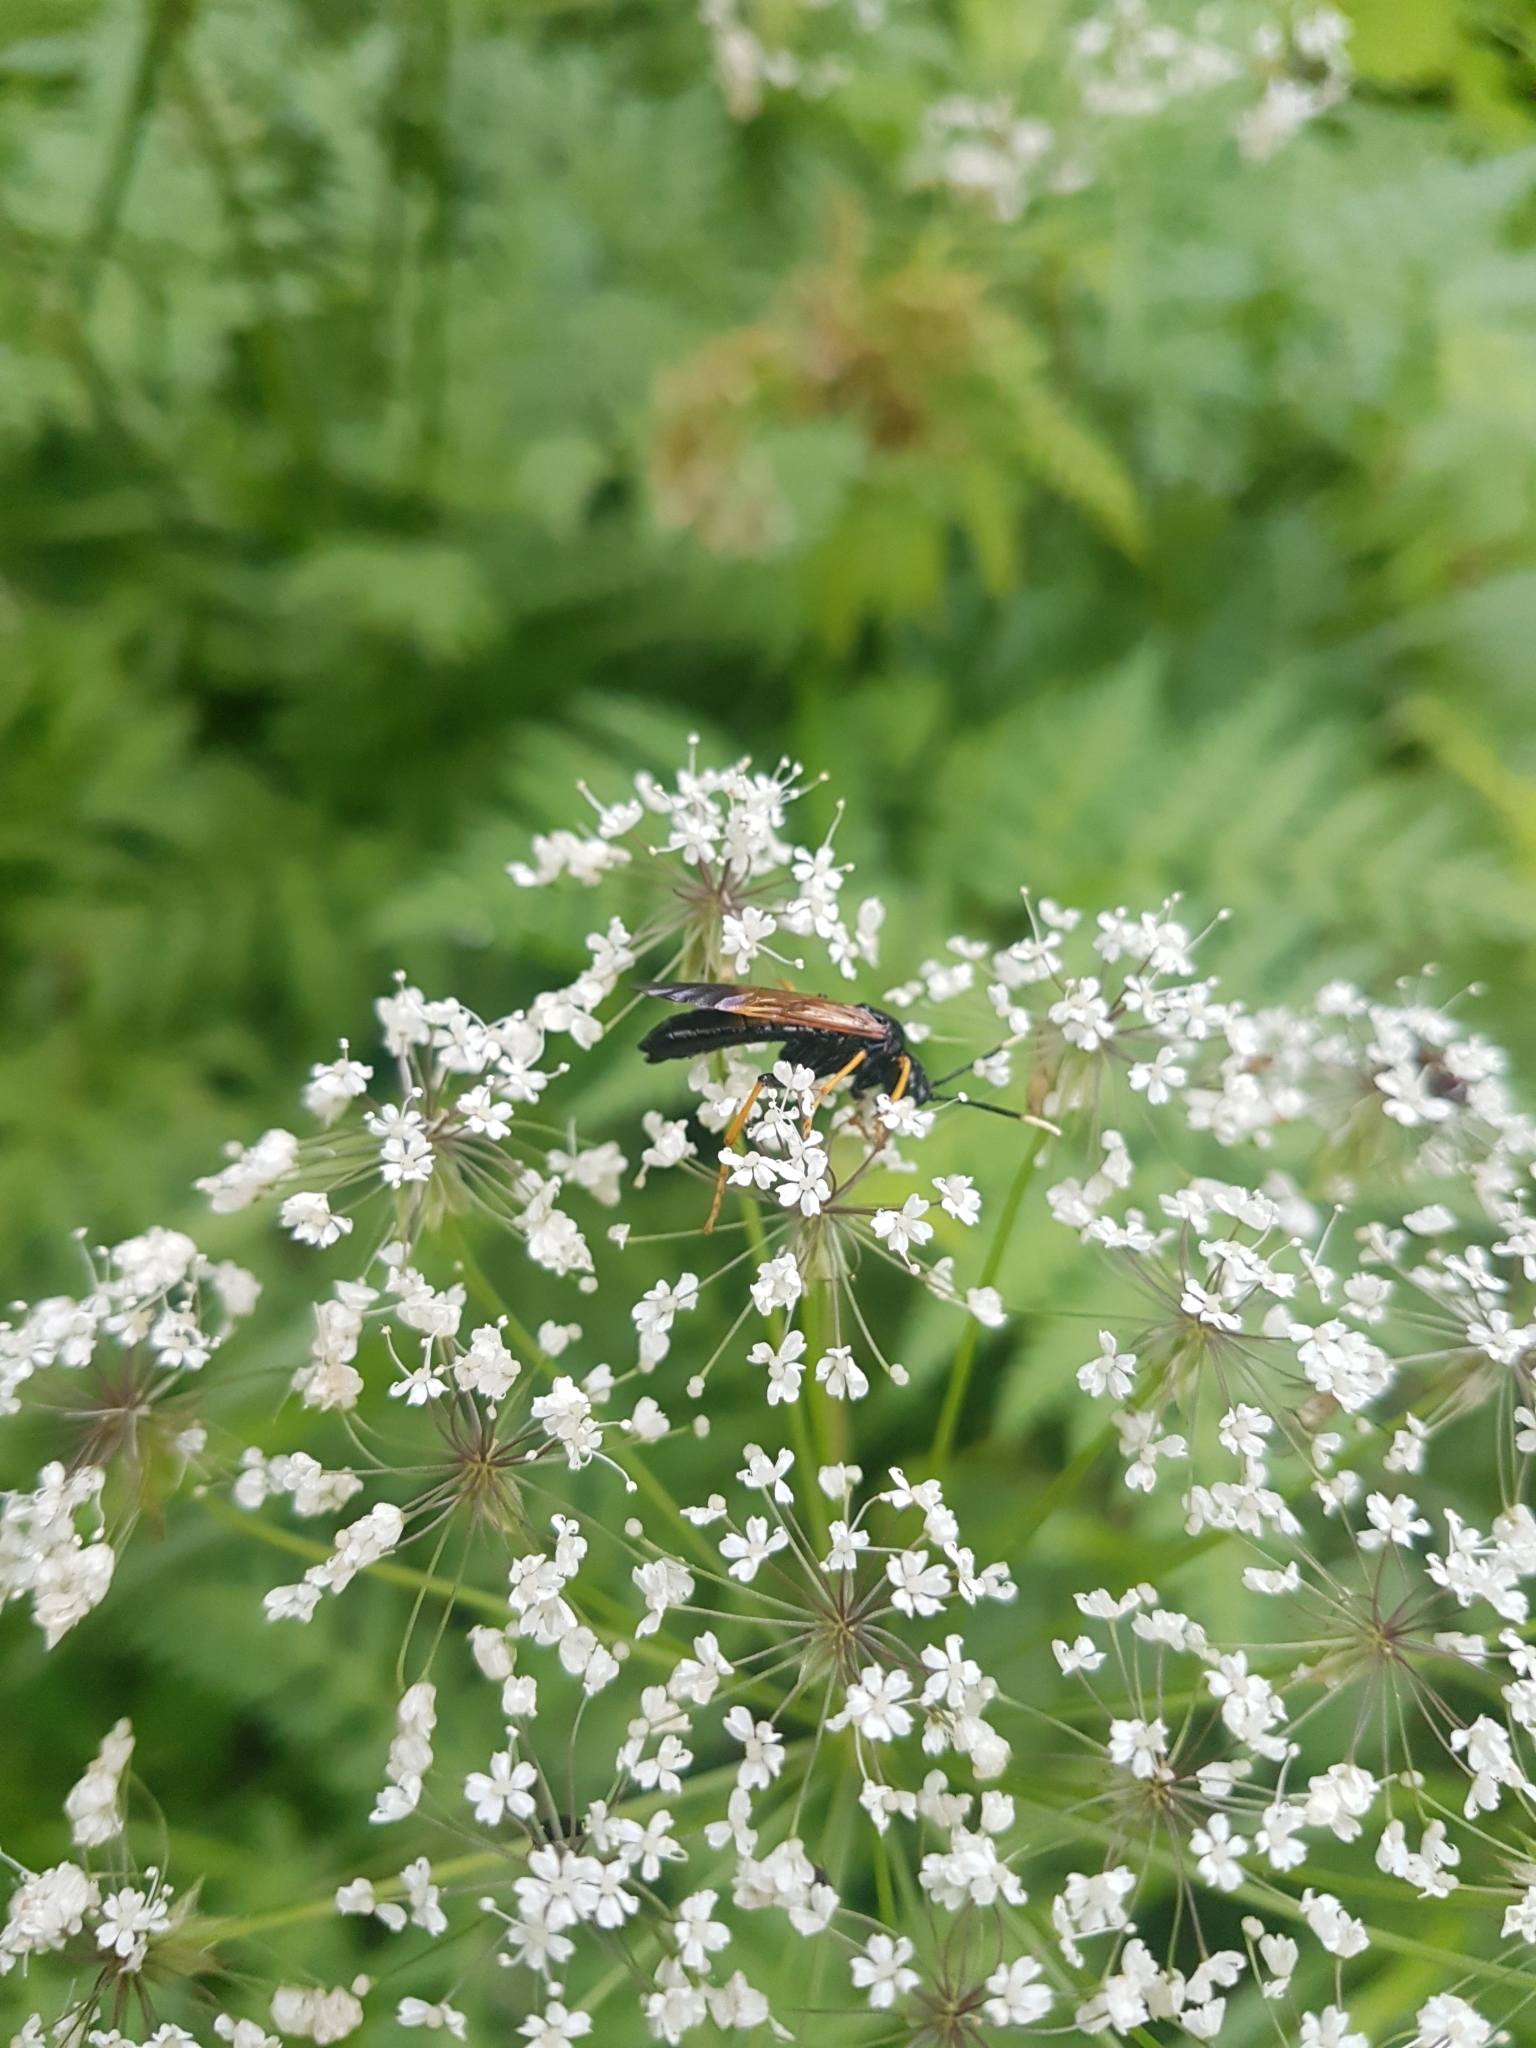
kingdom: Animalia
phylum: Arthropoda
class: Insecta
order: Hymenoptera
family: Tenthredinidae
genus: Tenthredo
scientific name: Tenthredo crassa
